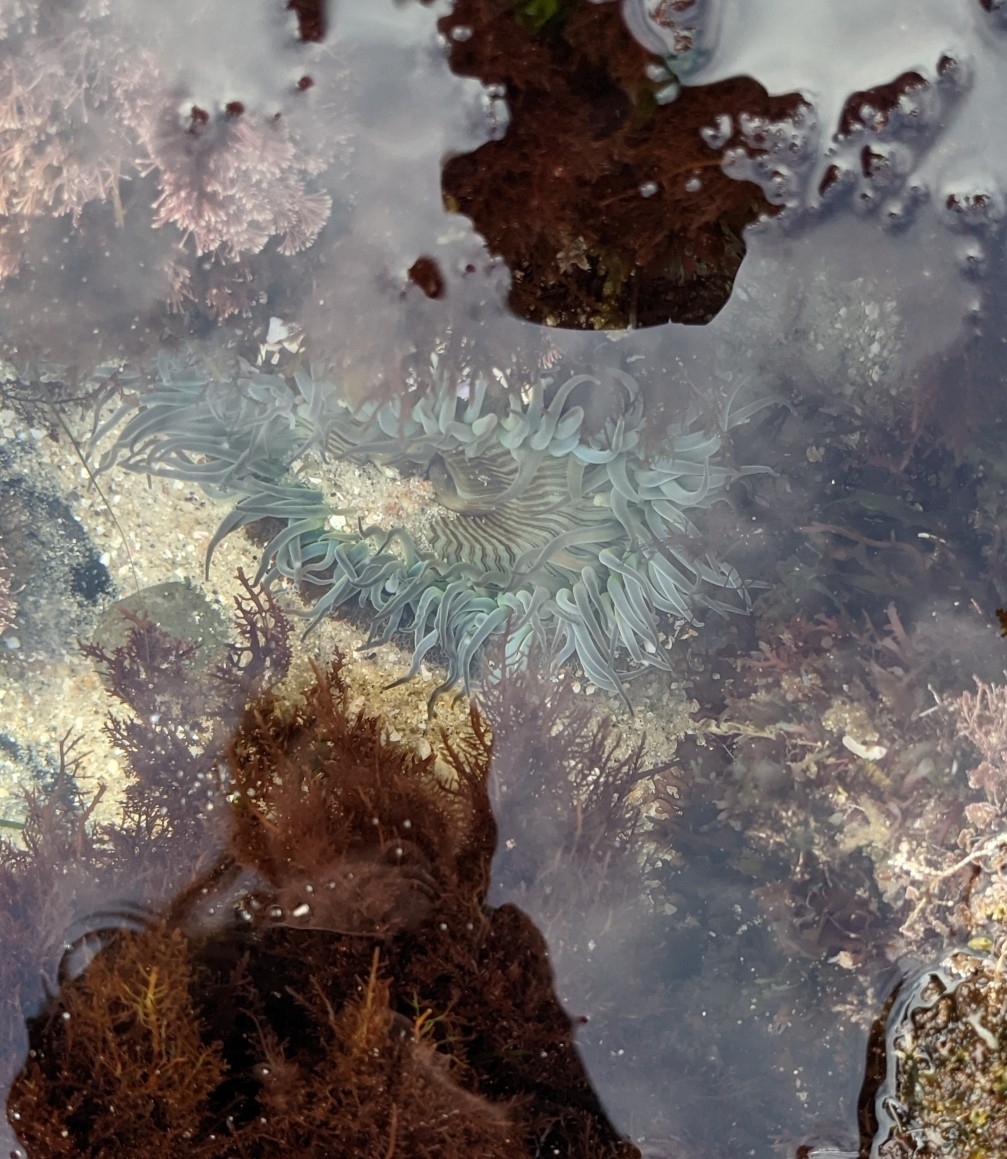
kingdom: Animalia
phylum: Cnidaria
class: Anthozoa
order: Actiniaria
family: Actiniidae
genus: Anthopleura
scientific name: Anthopleura sola
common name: Sun anemone
